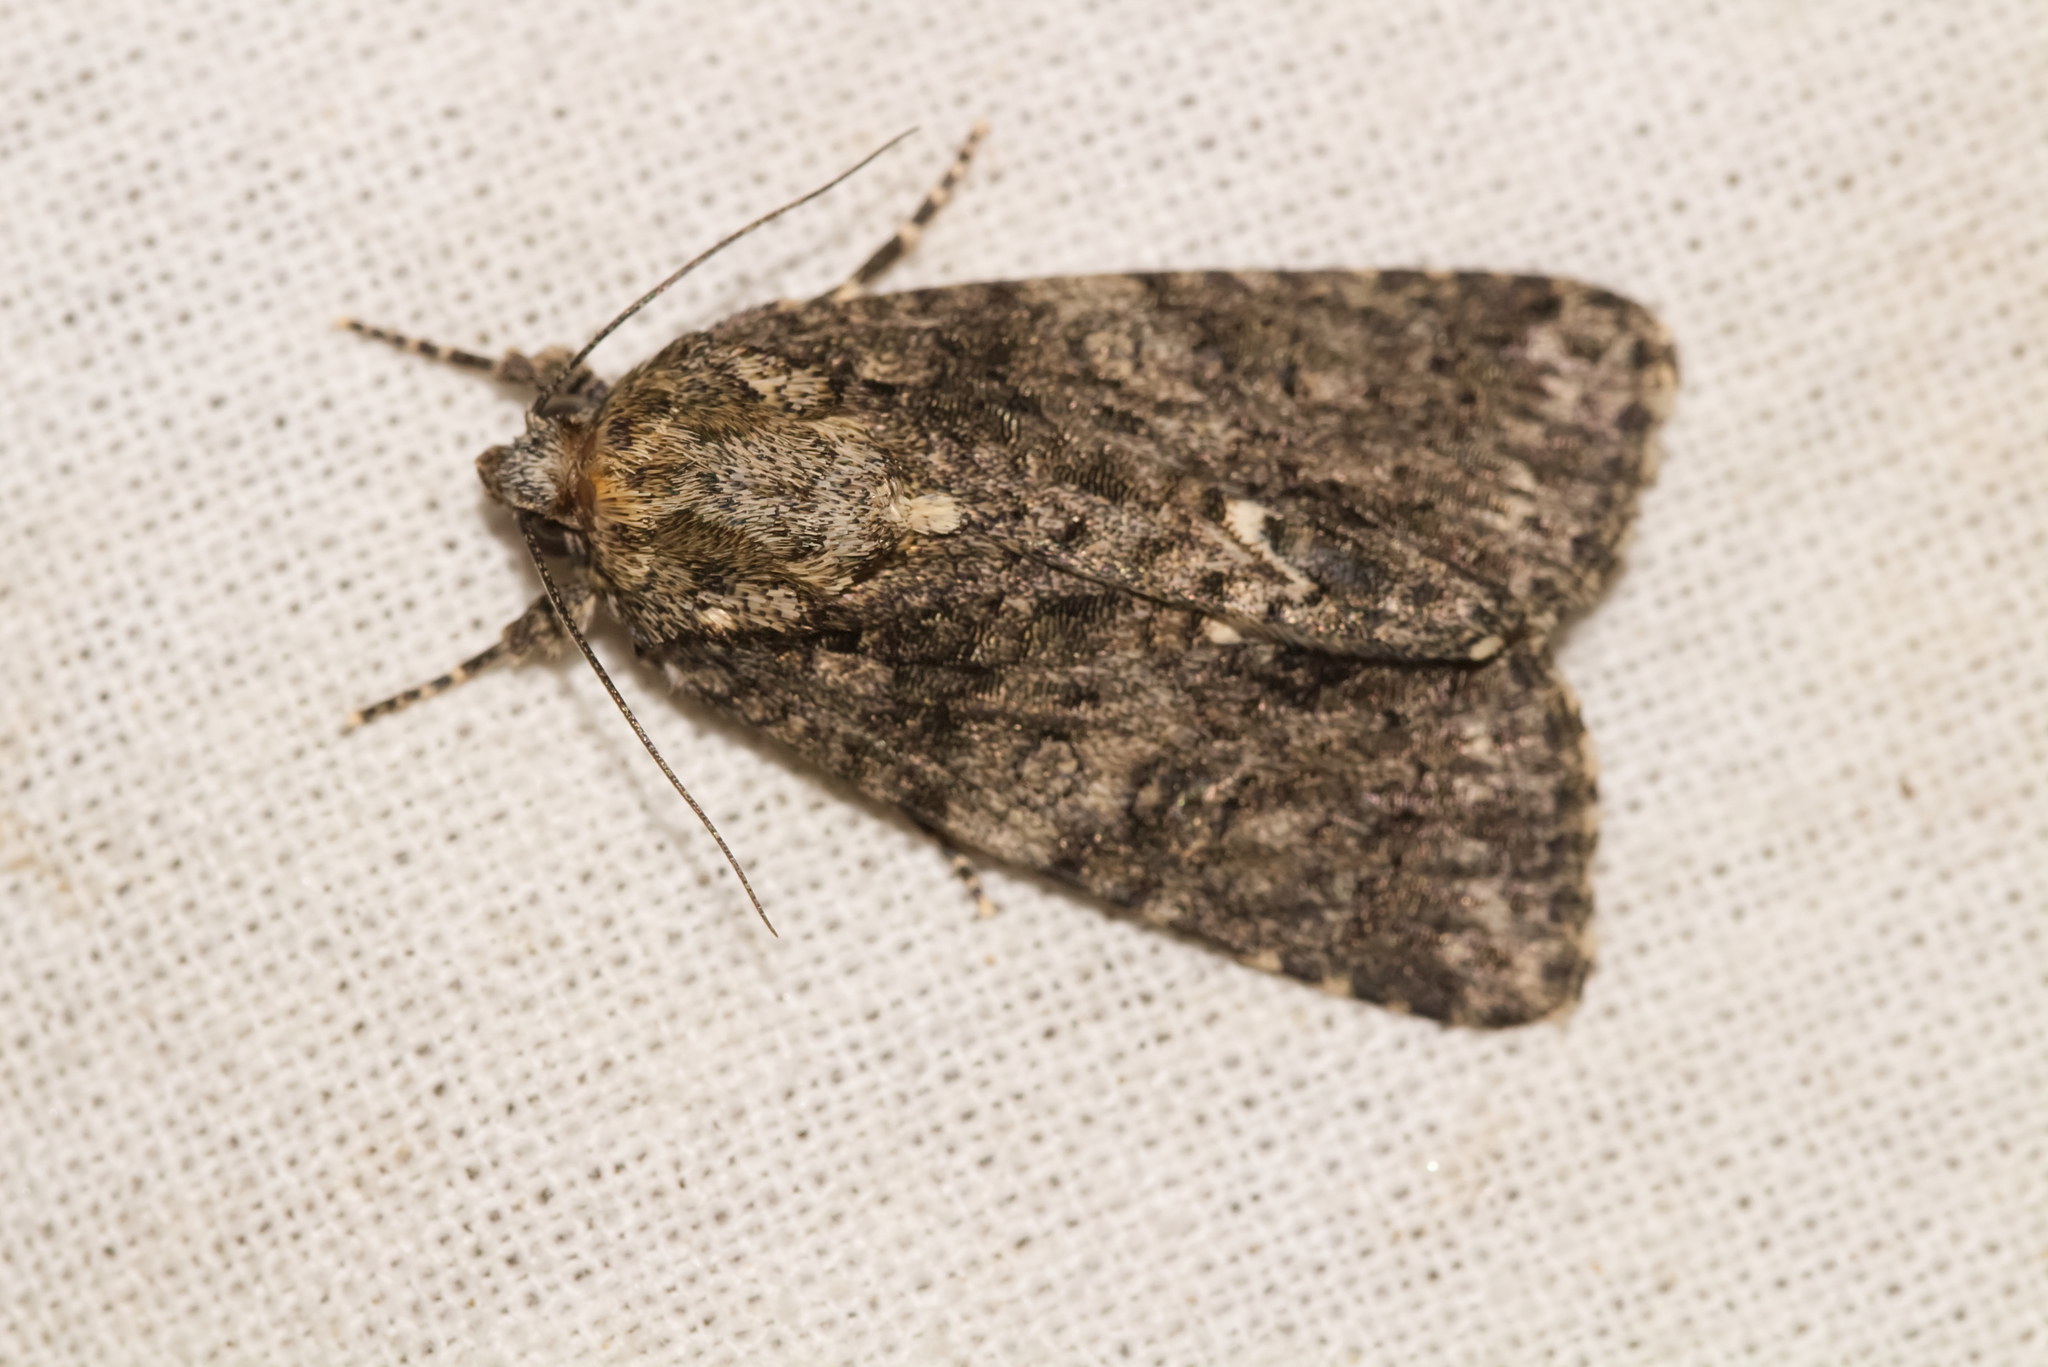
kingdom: Animalia
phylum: Arthropoda
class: Insecta
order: Lepidoptera
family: Noctuidae
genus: Acronicta
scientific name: Acronicta rumicis
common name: Knot grass
